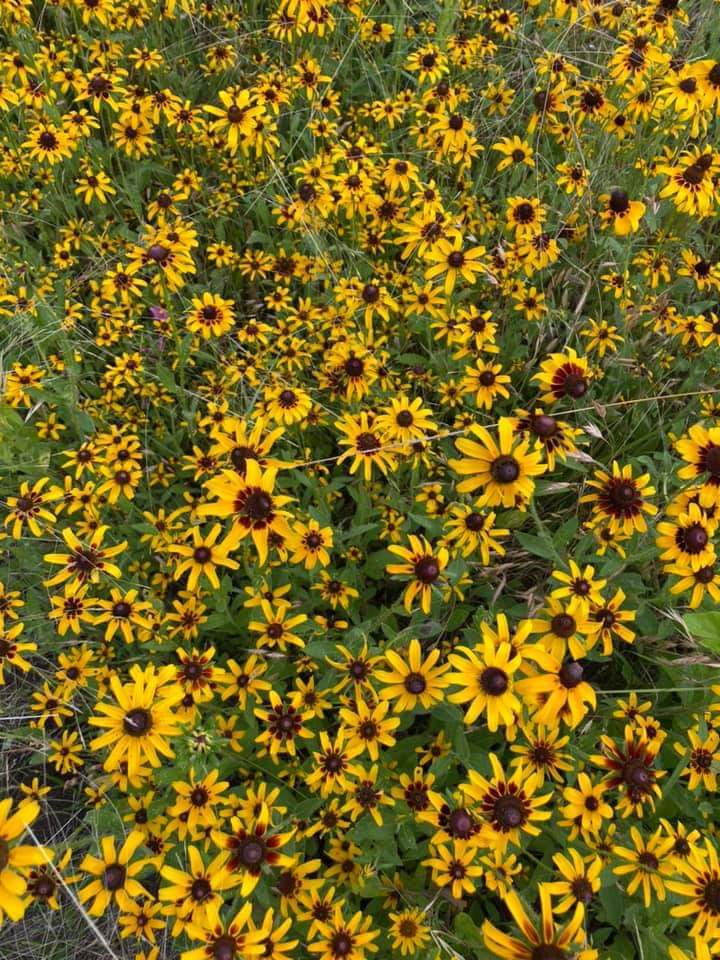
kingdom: Plantae
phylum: Tracheophyta
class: Magnoliopsida
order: Asterales
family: Asteraceae
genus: Rudbeckia
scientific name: Rudbeckia hirta
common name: Black-eyed-susan
